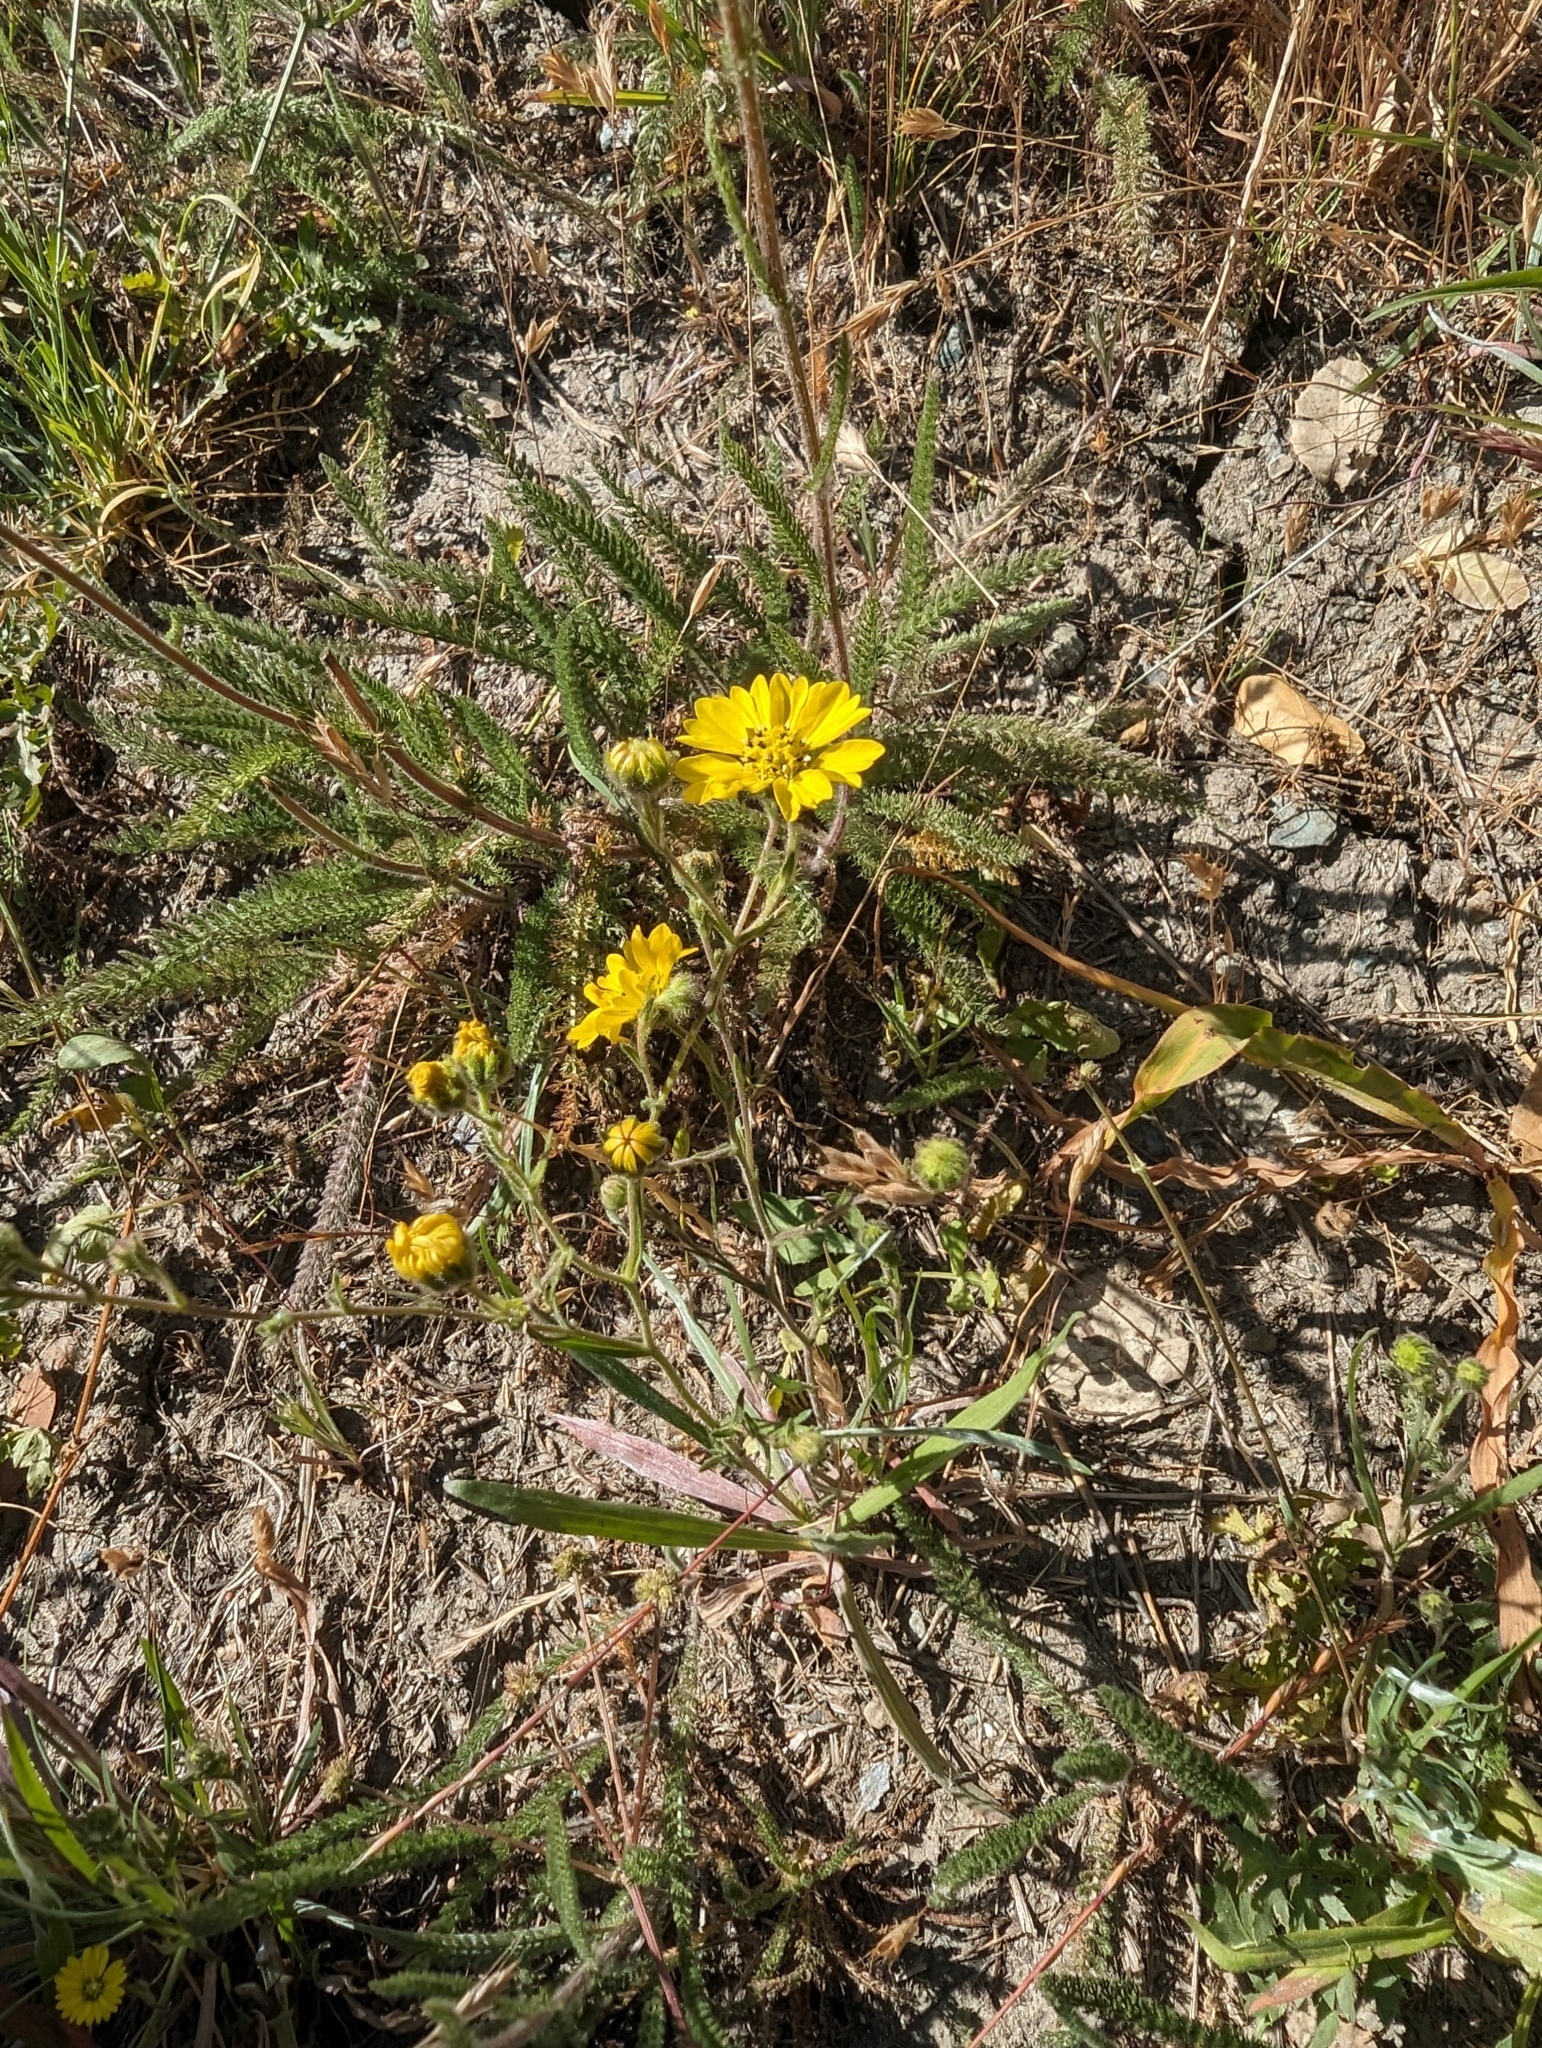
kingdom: Plantae
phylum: Tracheophyta
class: Magnoliopsida
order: Asterales
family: Asteraceae
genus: Hemizonia
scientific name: Hemizonia congesta
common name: Hayfield tarweed
